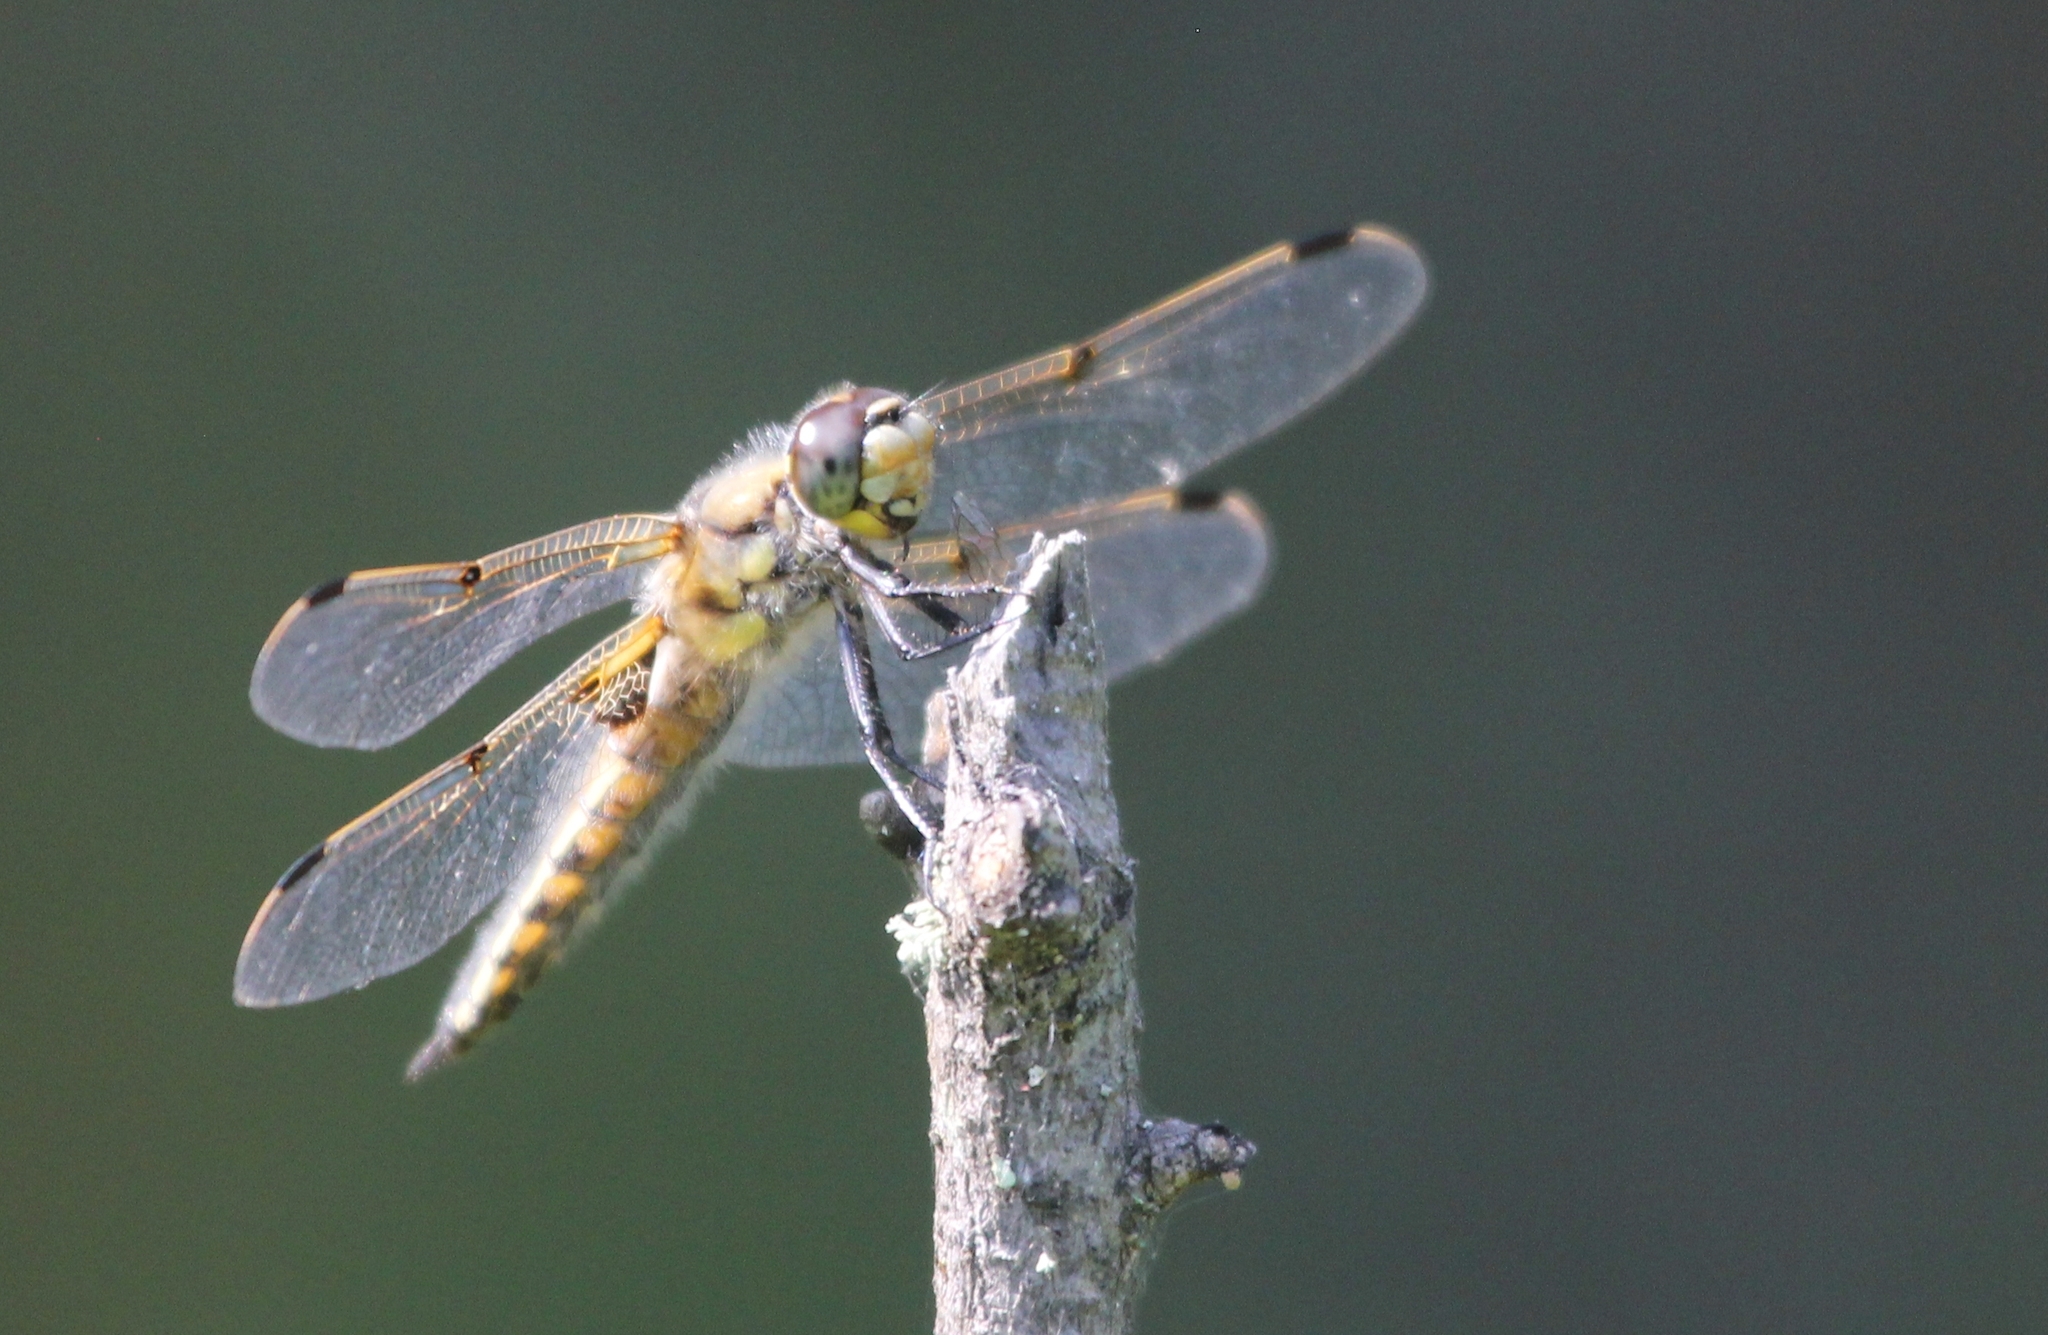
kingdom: Animalia
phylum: Arthropoda
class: Insecta
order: Odonata
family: Libellulidae
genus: Libellula
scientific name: Libellula quadrimaculata
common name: Four-spotted chaser
